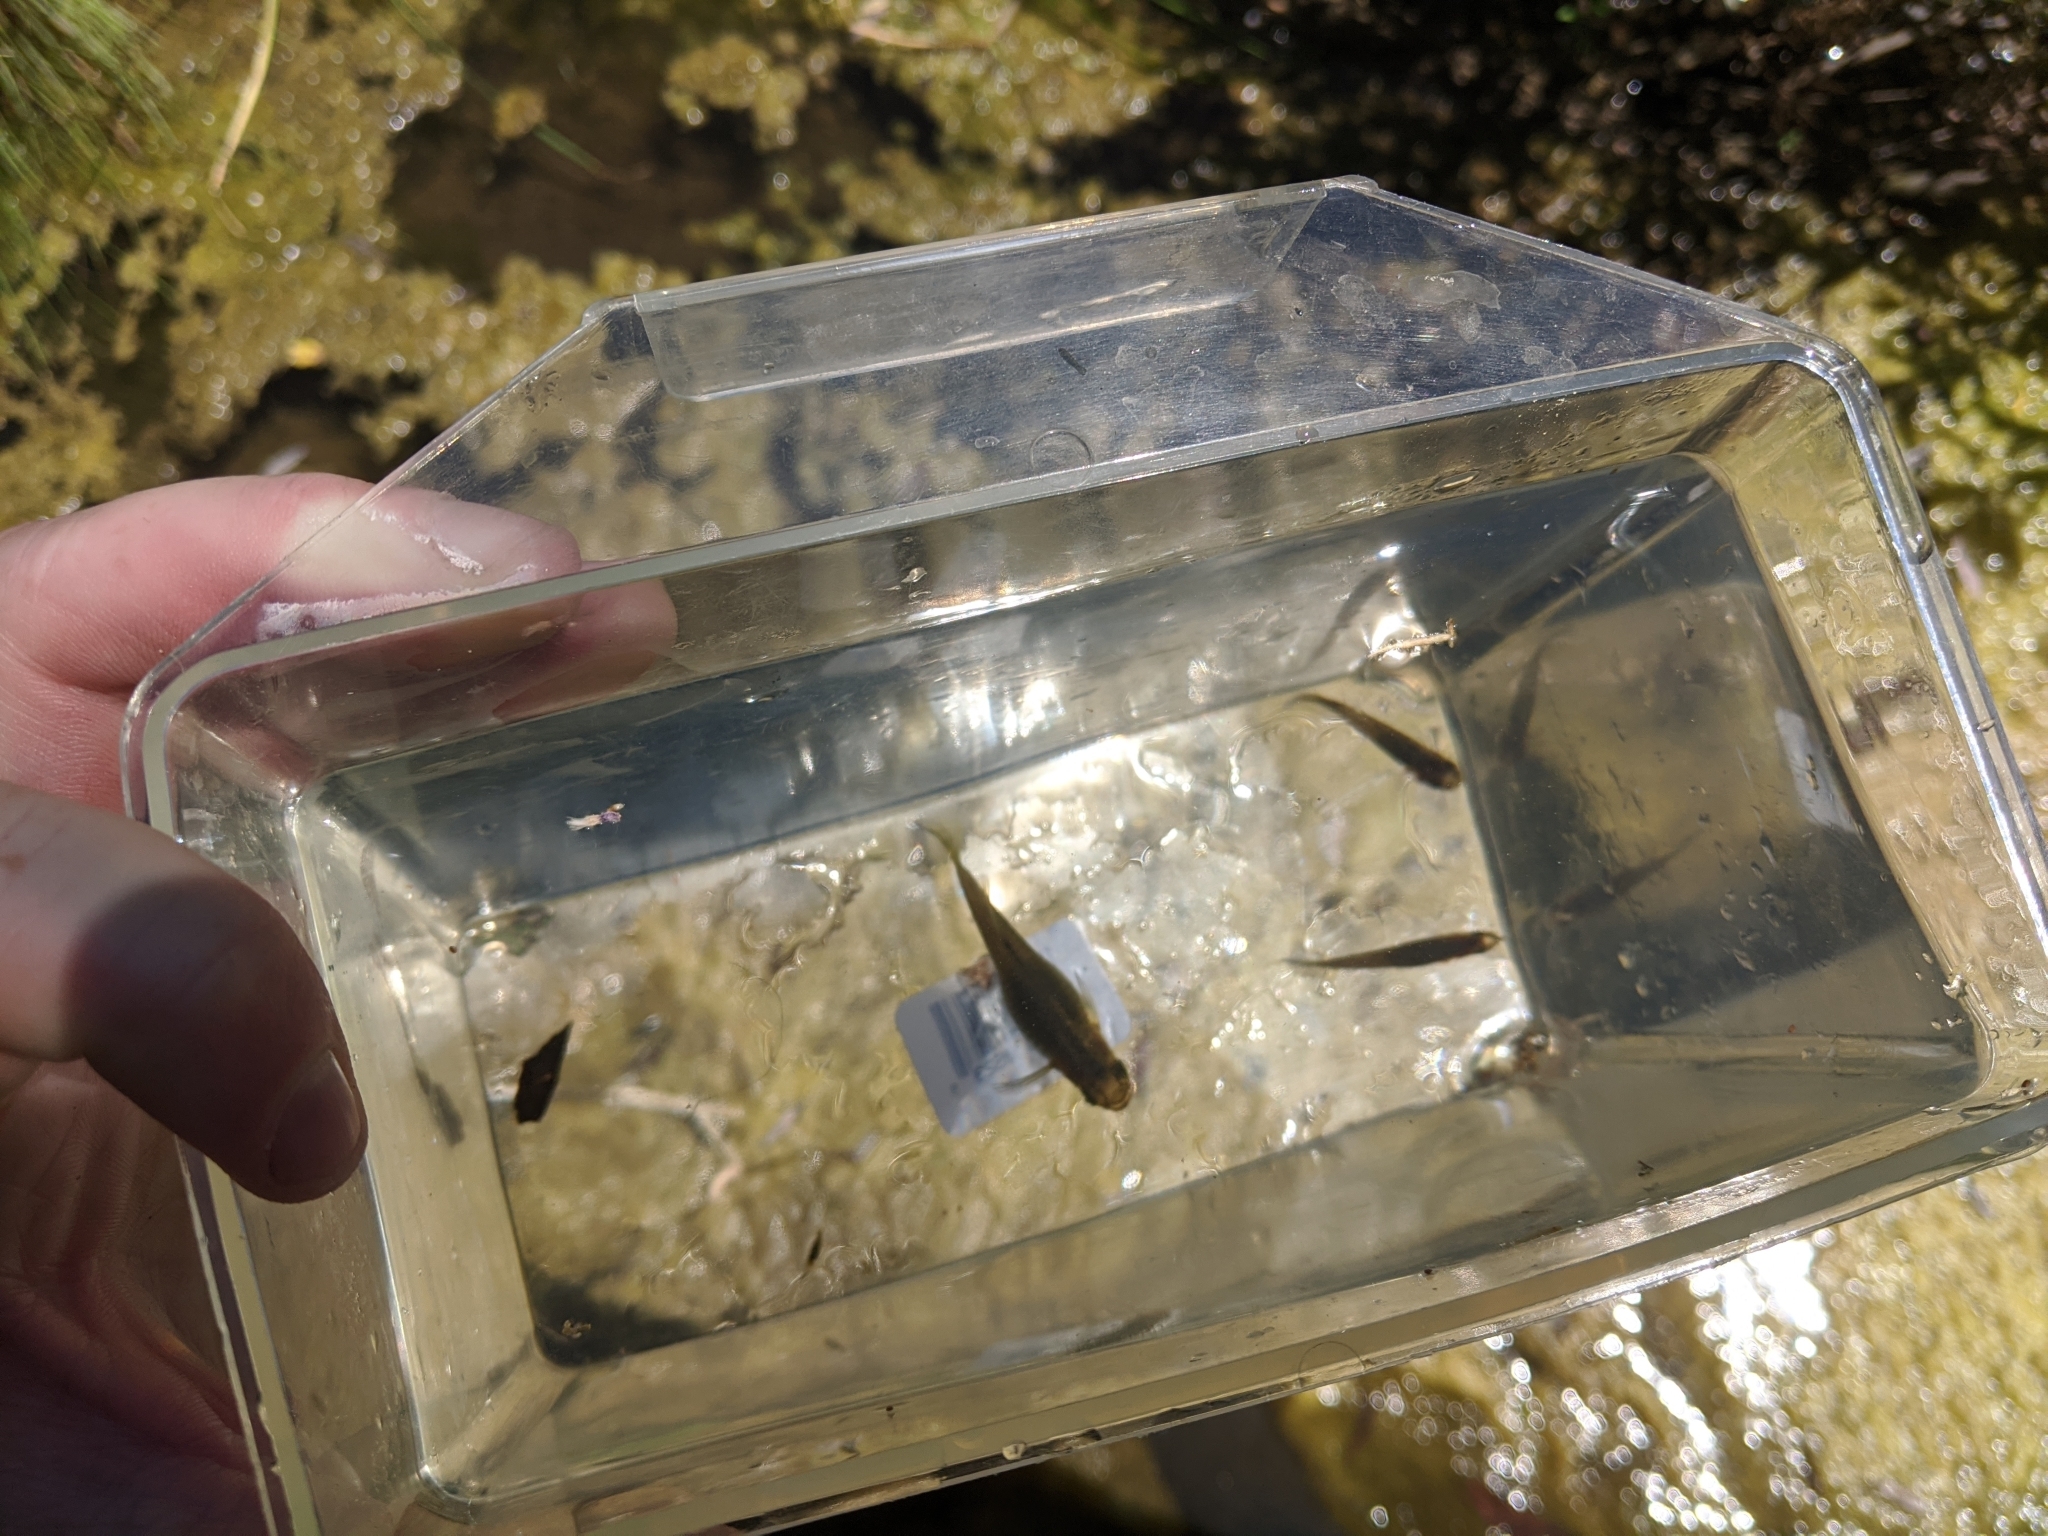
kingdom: Animalia
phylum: Chordata
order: Cyprinodontiformes
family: Poeciliidae
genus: Gambusia
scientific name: Gambusia affinis
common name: Mosquitofish
